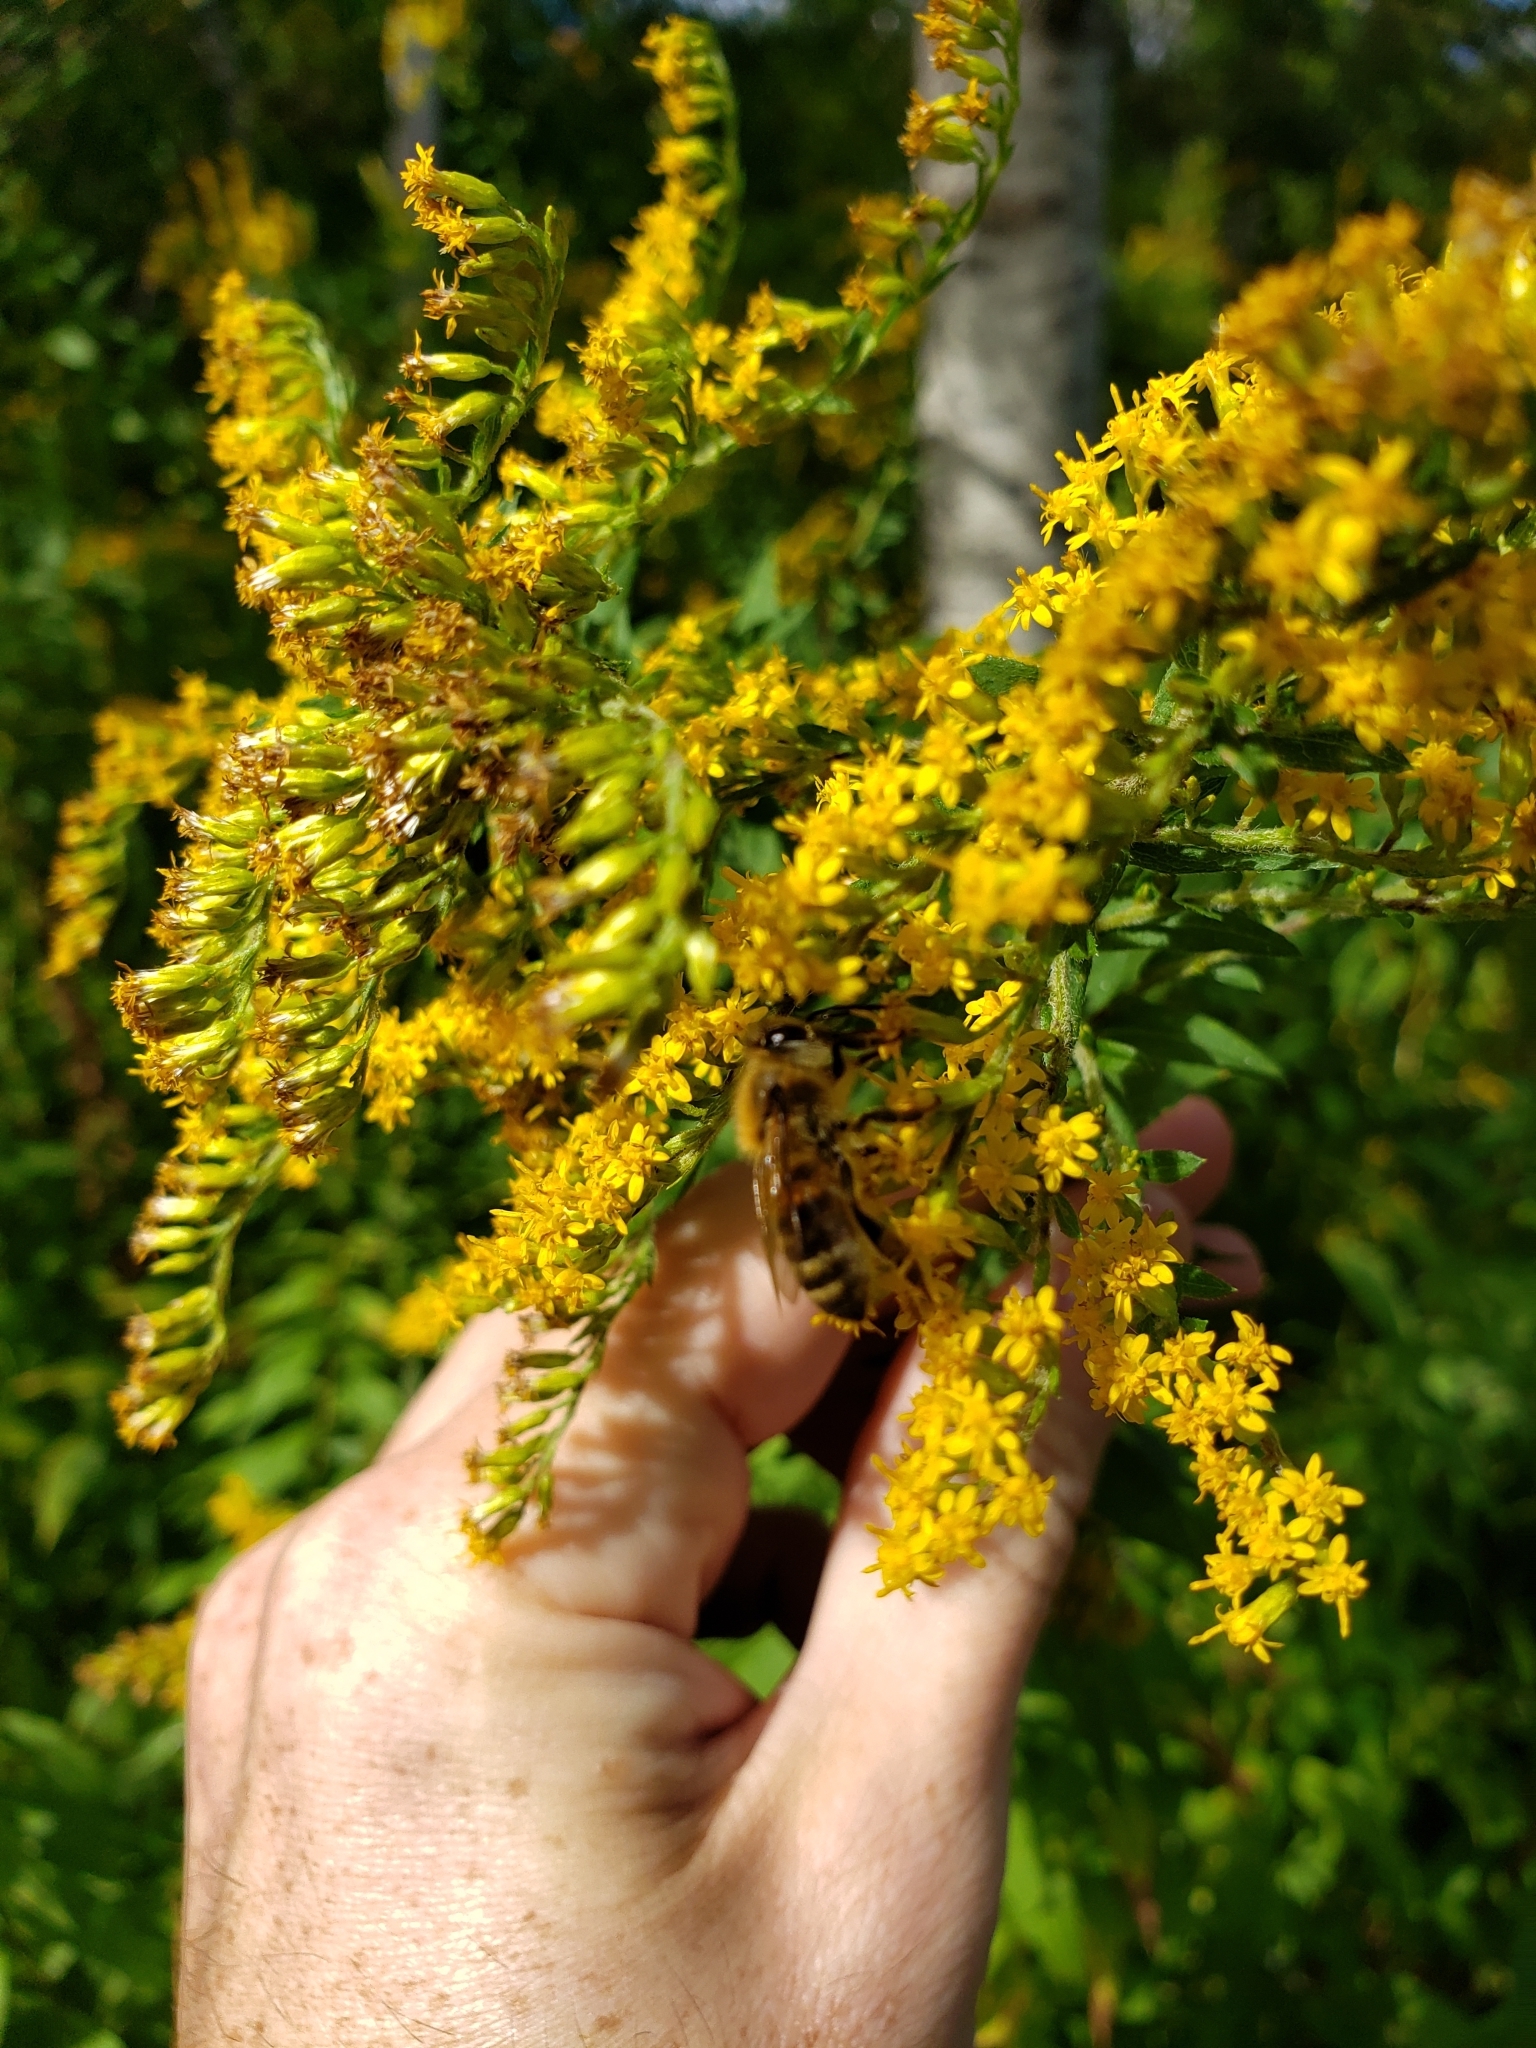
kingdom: Animalia
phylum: Arthropoda
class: Insecta
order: Hymenoptera
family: Apidae
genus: Apis
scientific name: Apis mellifera
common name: Honey bee
